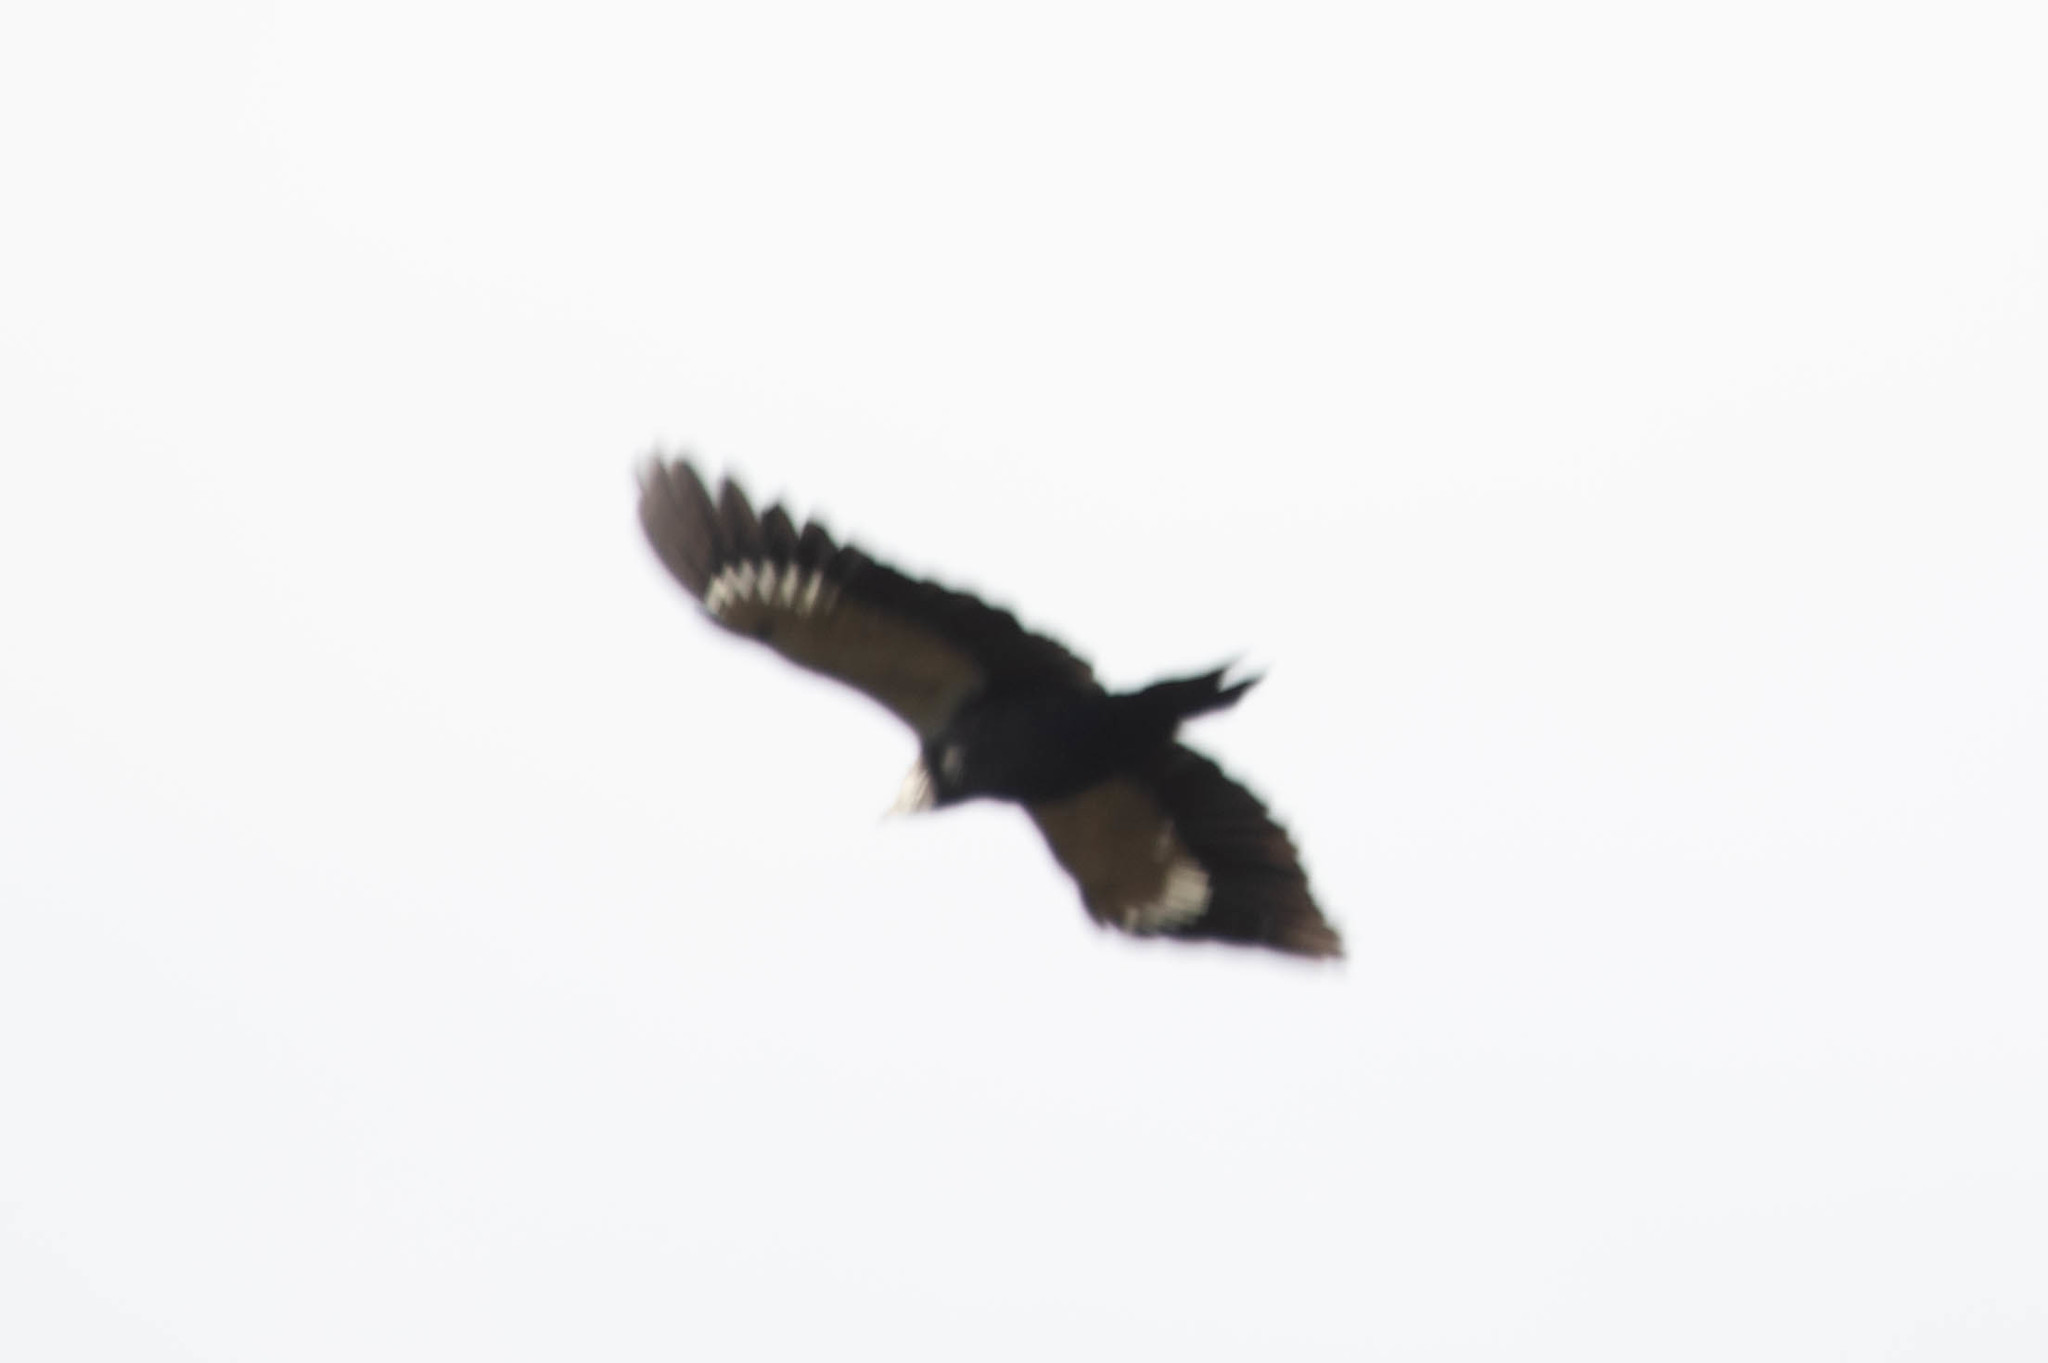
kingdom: Animalia
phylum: Chordata
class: Aves
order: Piciformes
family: Picidae
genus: Dryocopus
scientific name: Dryocopus pileatus
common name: Pileated woodpecker
